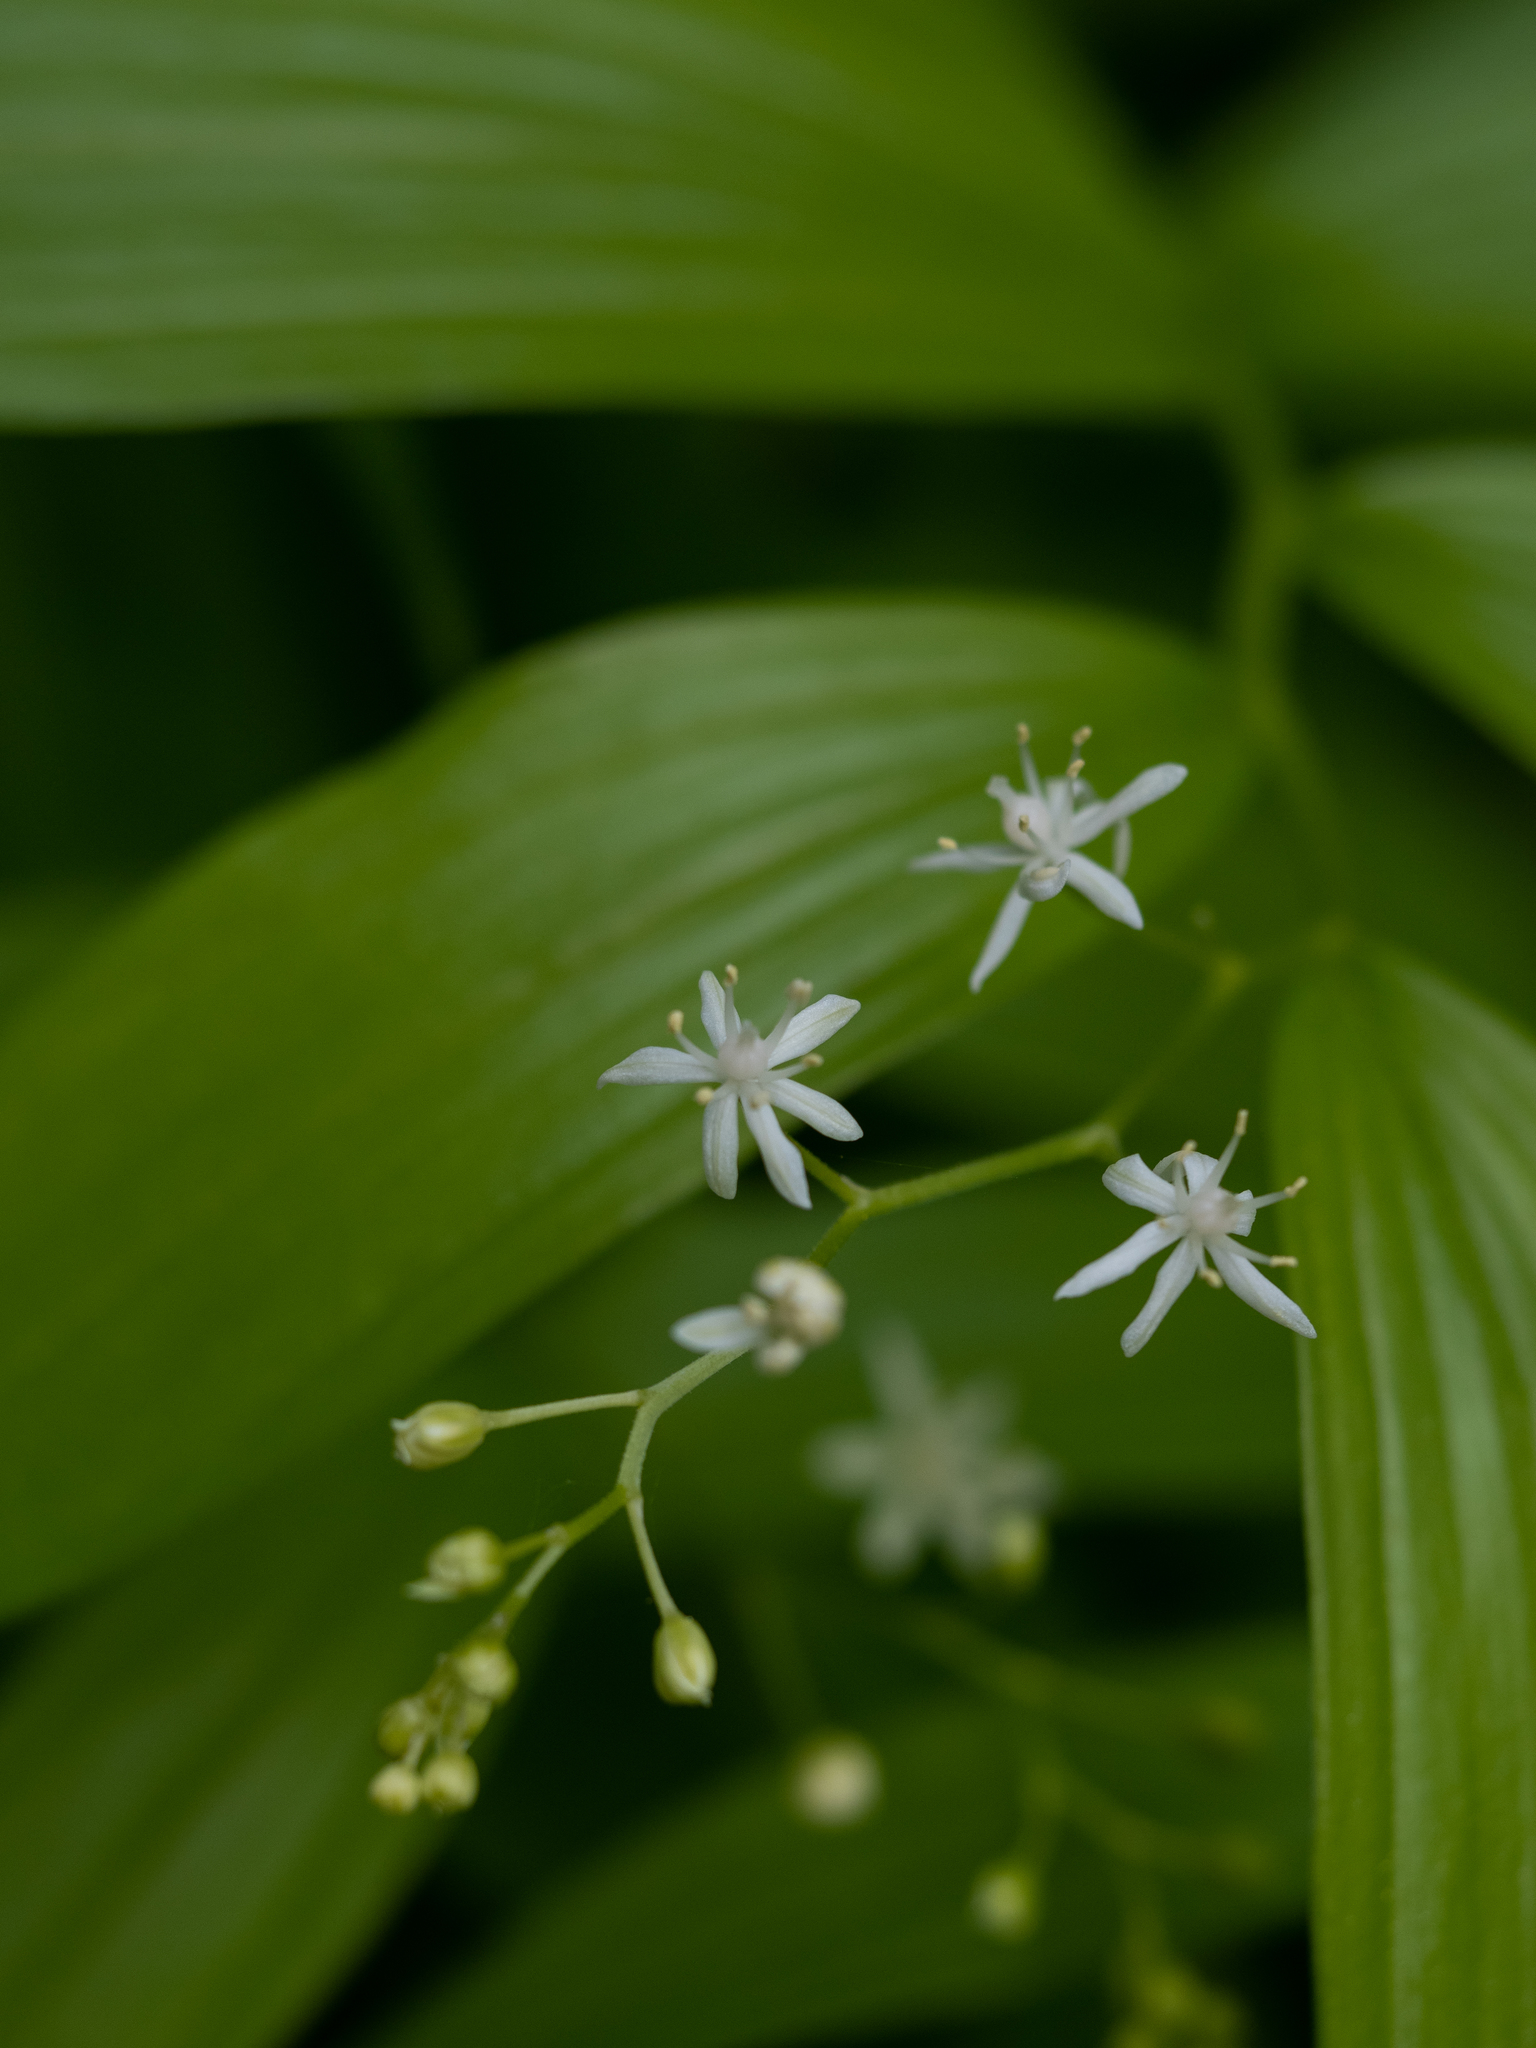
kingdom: Plantae
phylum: Tracheophyta
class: Liliopsida
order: Asparagales
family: Asparagaceae
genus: Maianthemum
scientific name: Maianthemum stellatum
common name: Little false solomon's seal
